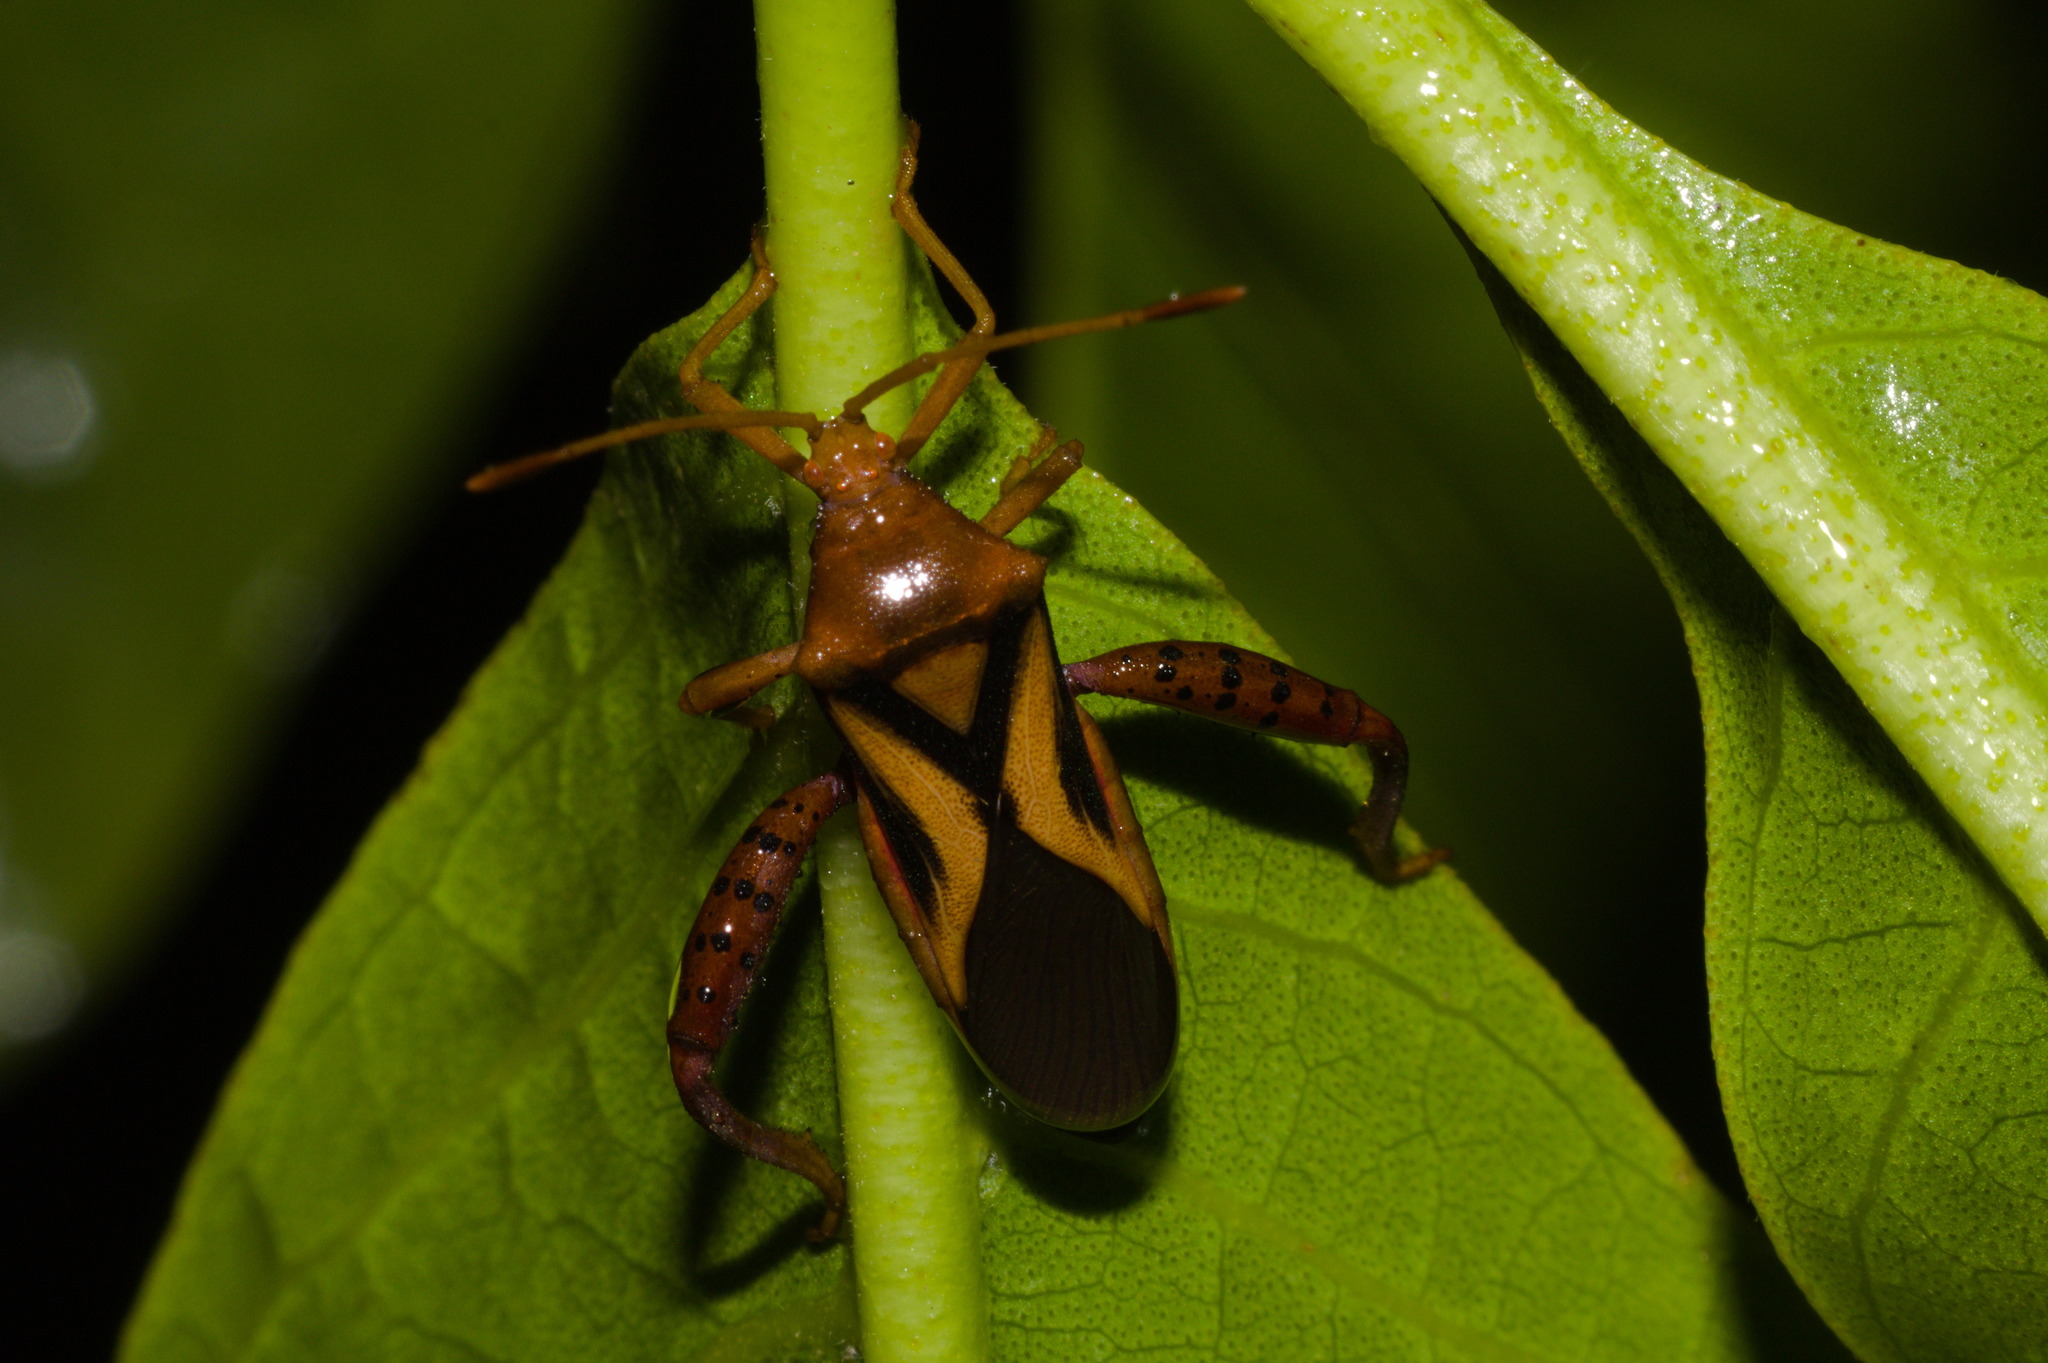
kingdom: Animalia
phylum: Arthropoda
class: Insecta
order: Hemiptera
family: Coreidae
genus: Crinocerus
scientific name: Crinocerus sanctus
